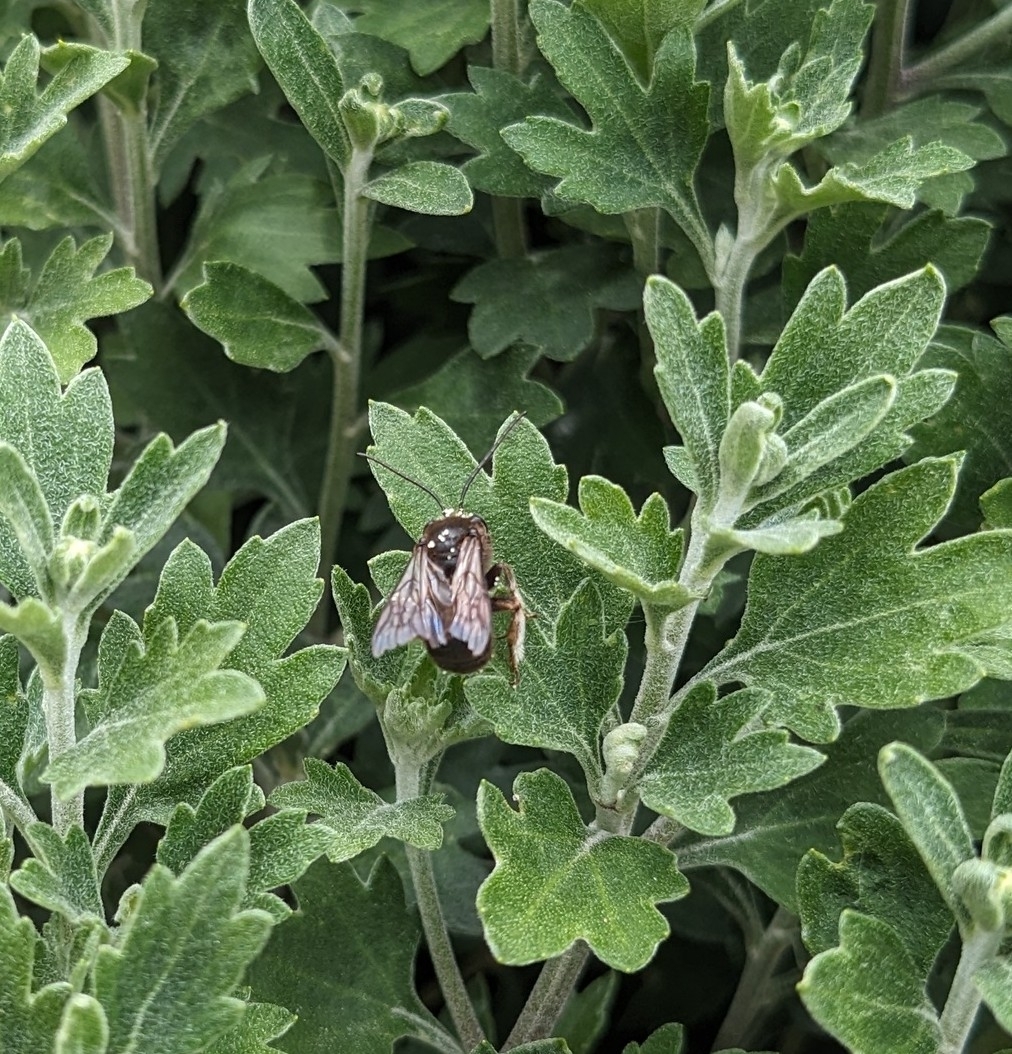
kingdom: Animalia
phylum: Arthropoda
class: Insecta
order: Hymenoptera
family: Apidae
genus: Melissodes
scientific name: Melissodes bimaculatus
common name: Two-spotted long-horned bee
